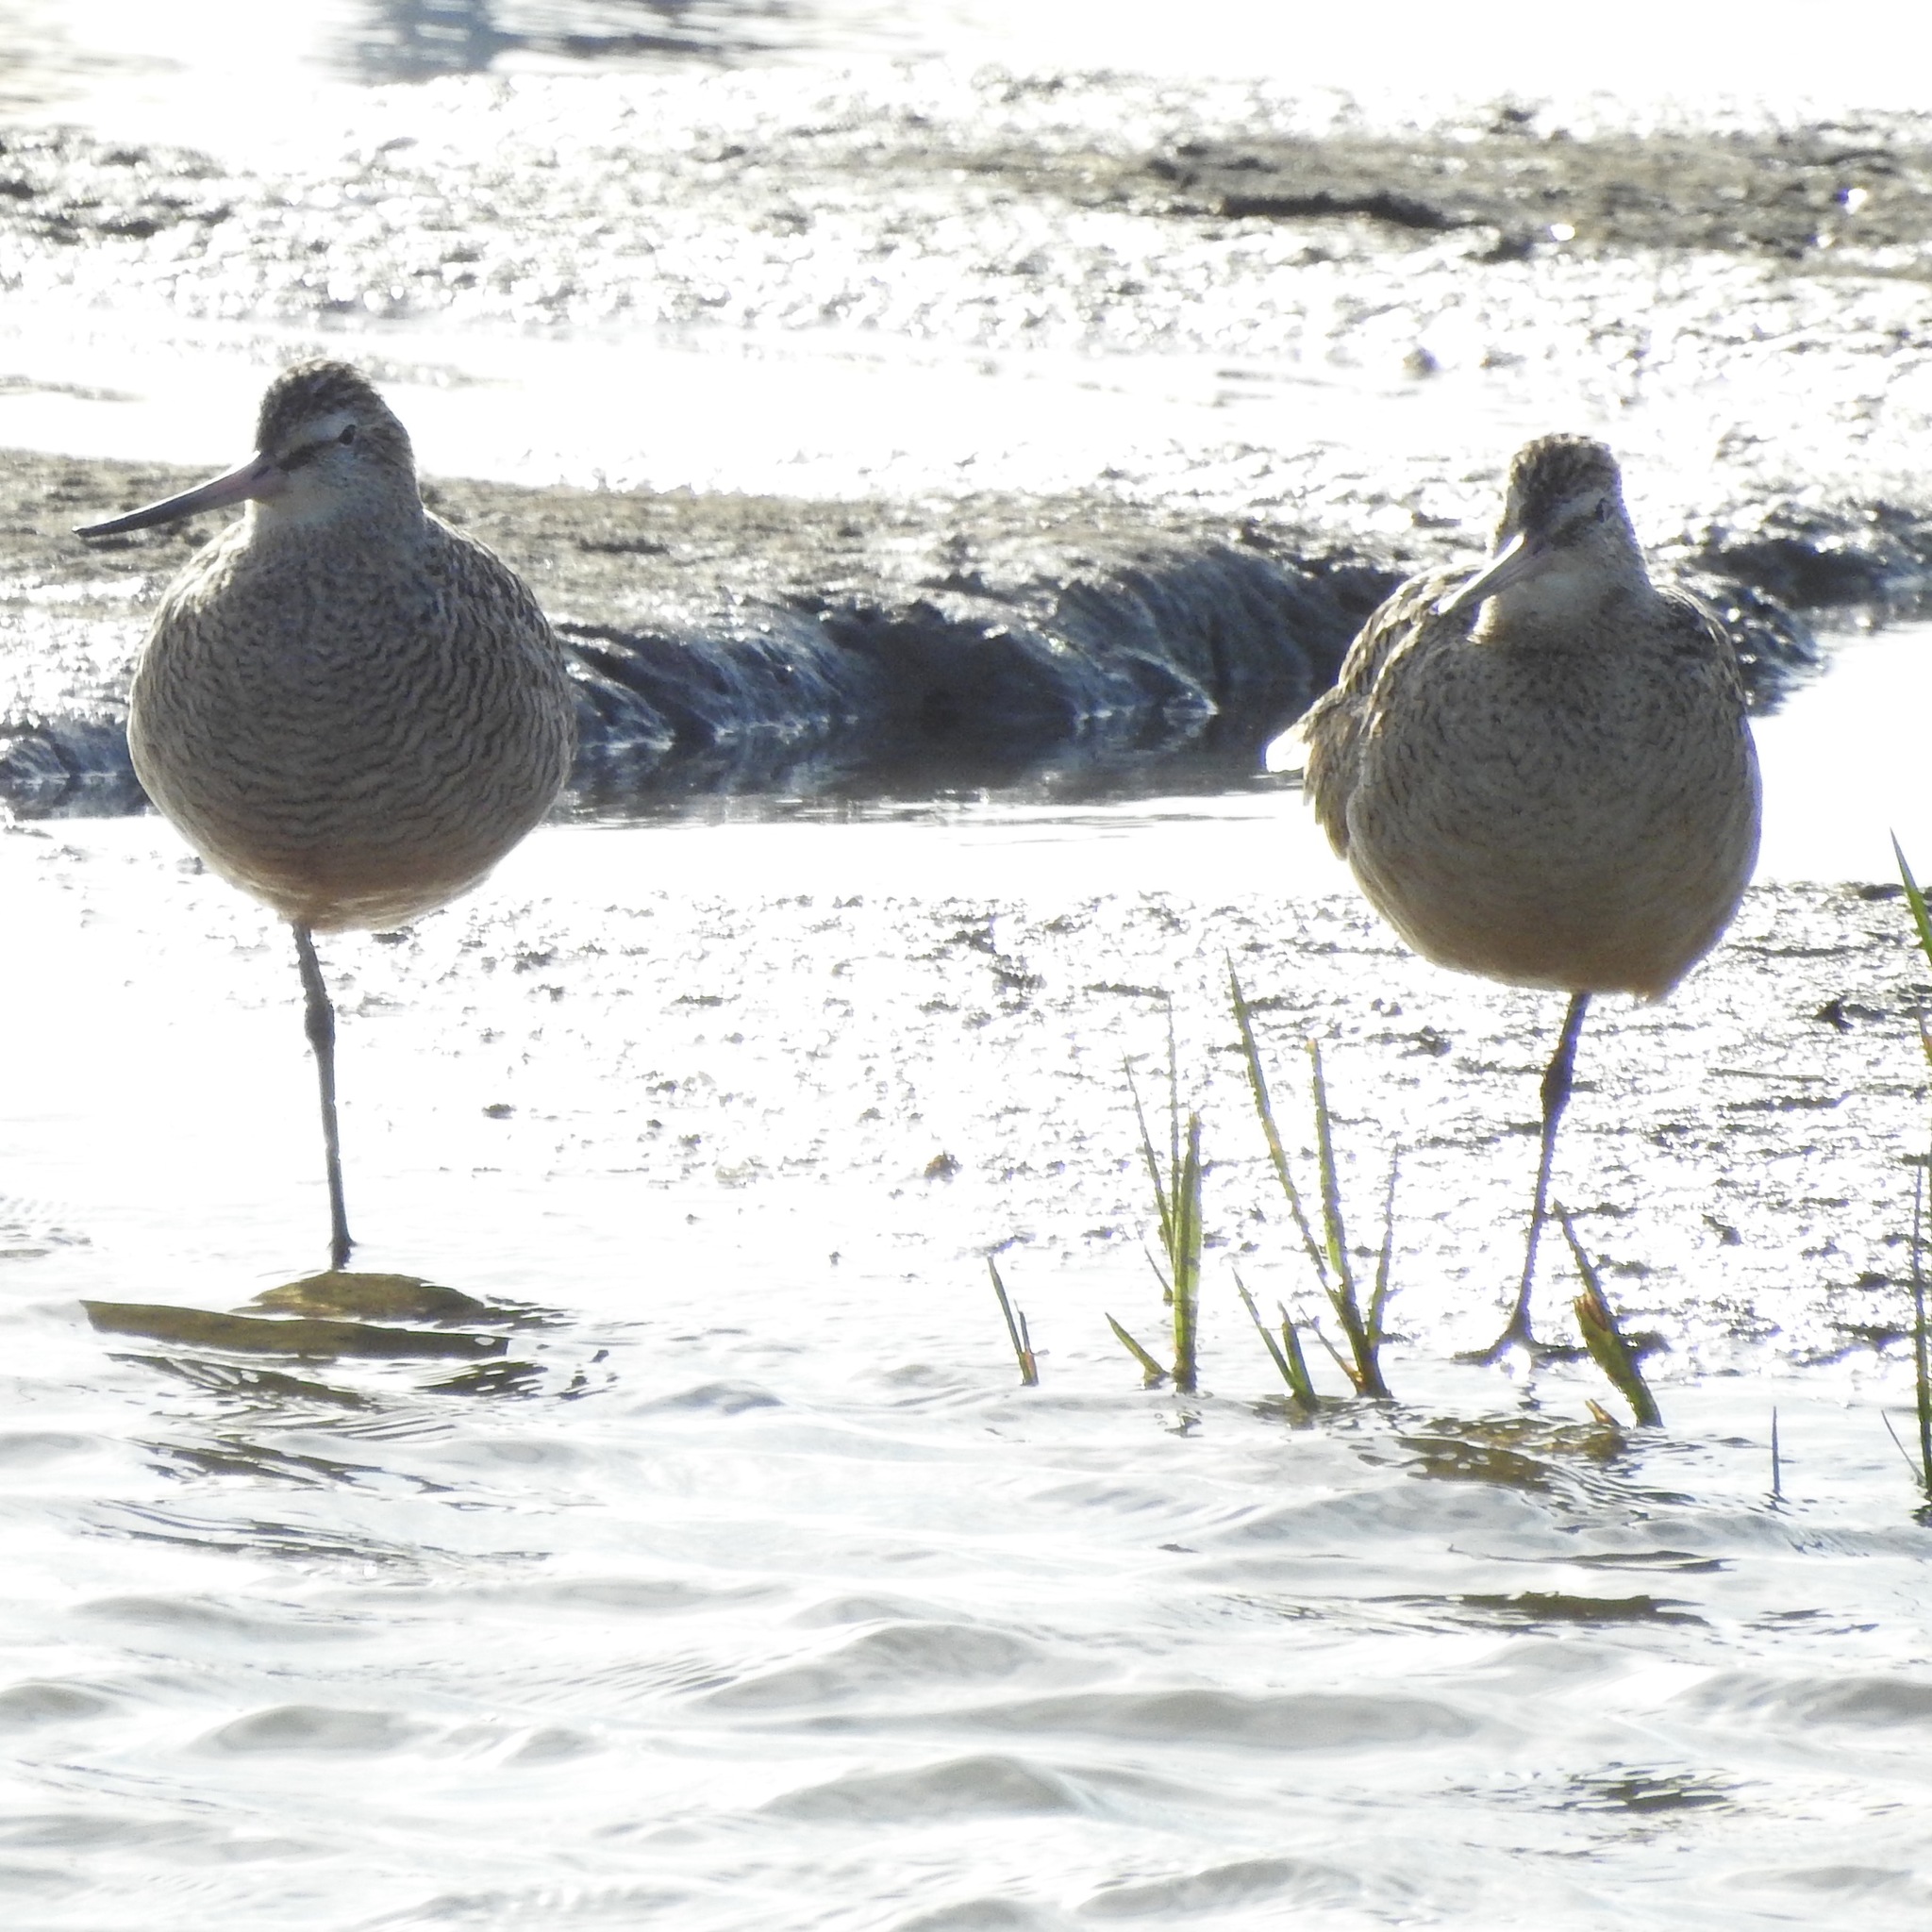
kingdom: Animalia
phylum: Chordata
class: Aves
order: Charadriiformes
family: Scolopacidae
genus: Limosa
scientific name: Limosa fedoa
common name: Marbled godwit
